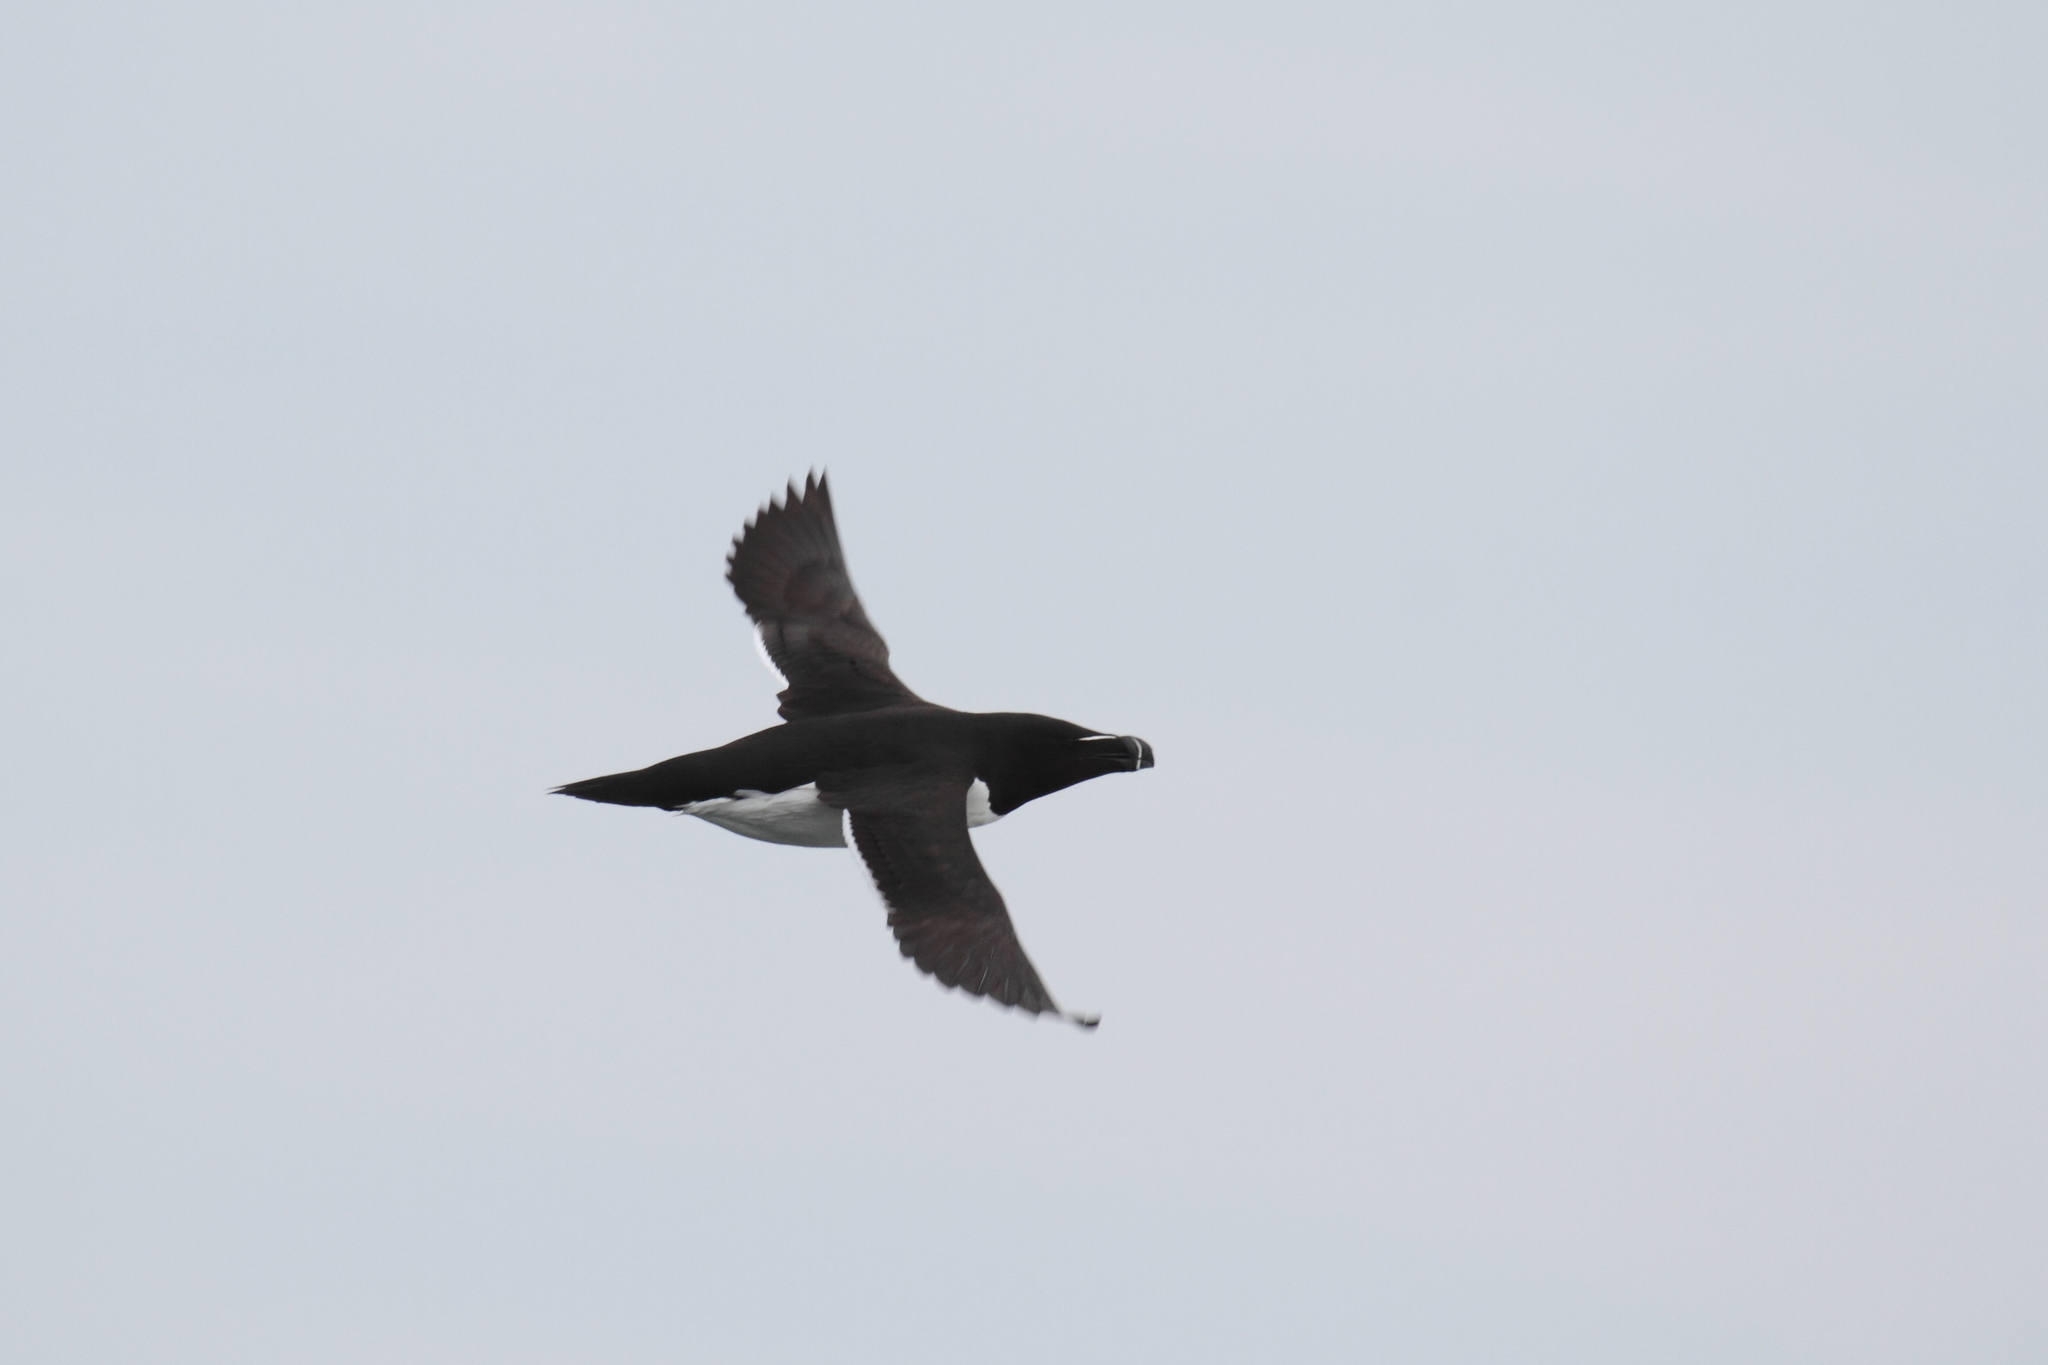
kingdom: Animalia
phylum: Chordata
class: Aves
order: Charadriiformes
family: Alcidae
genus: Alca
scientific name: Alca torda
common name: Razorbill
